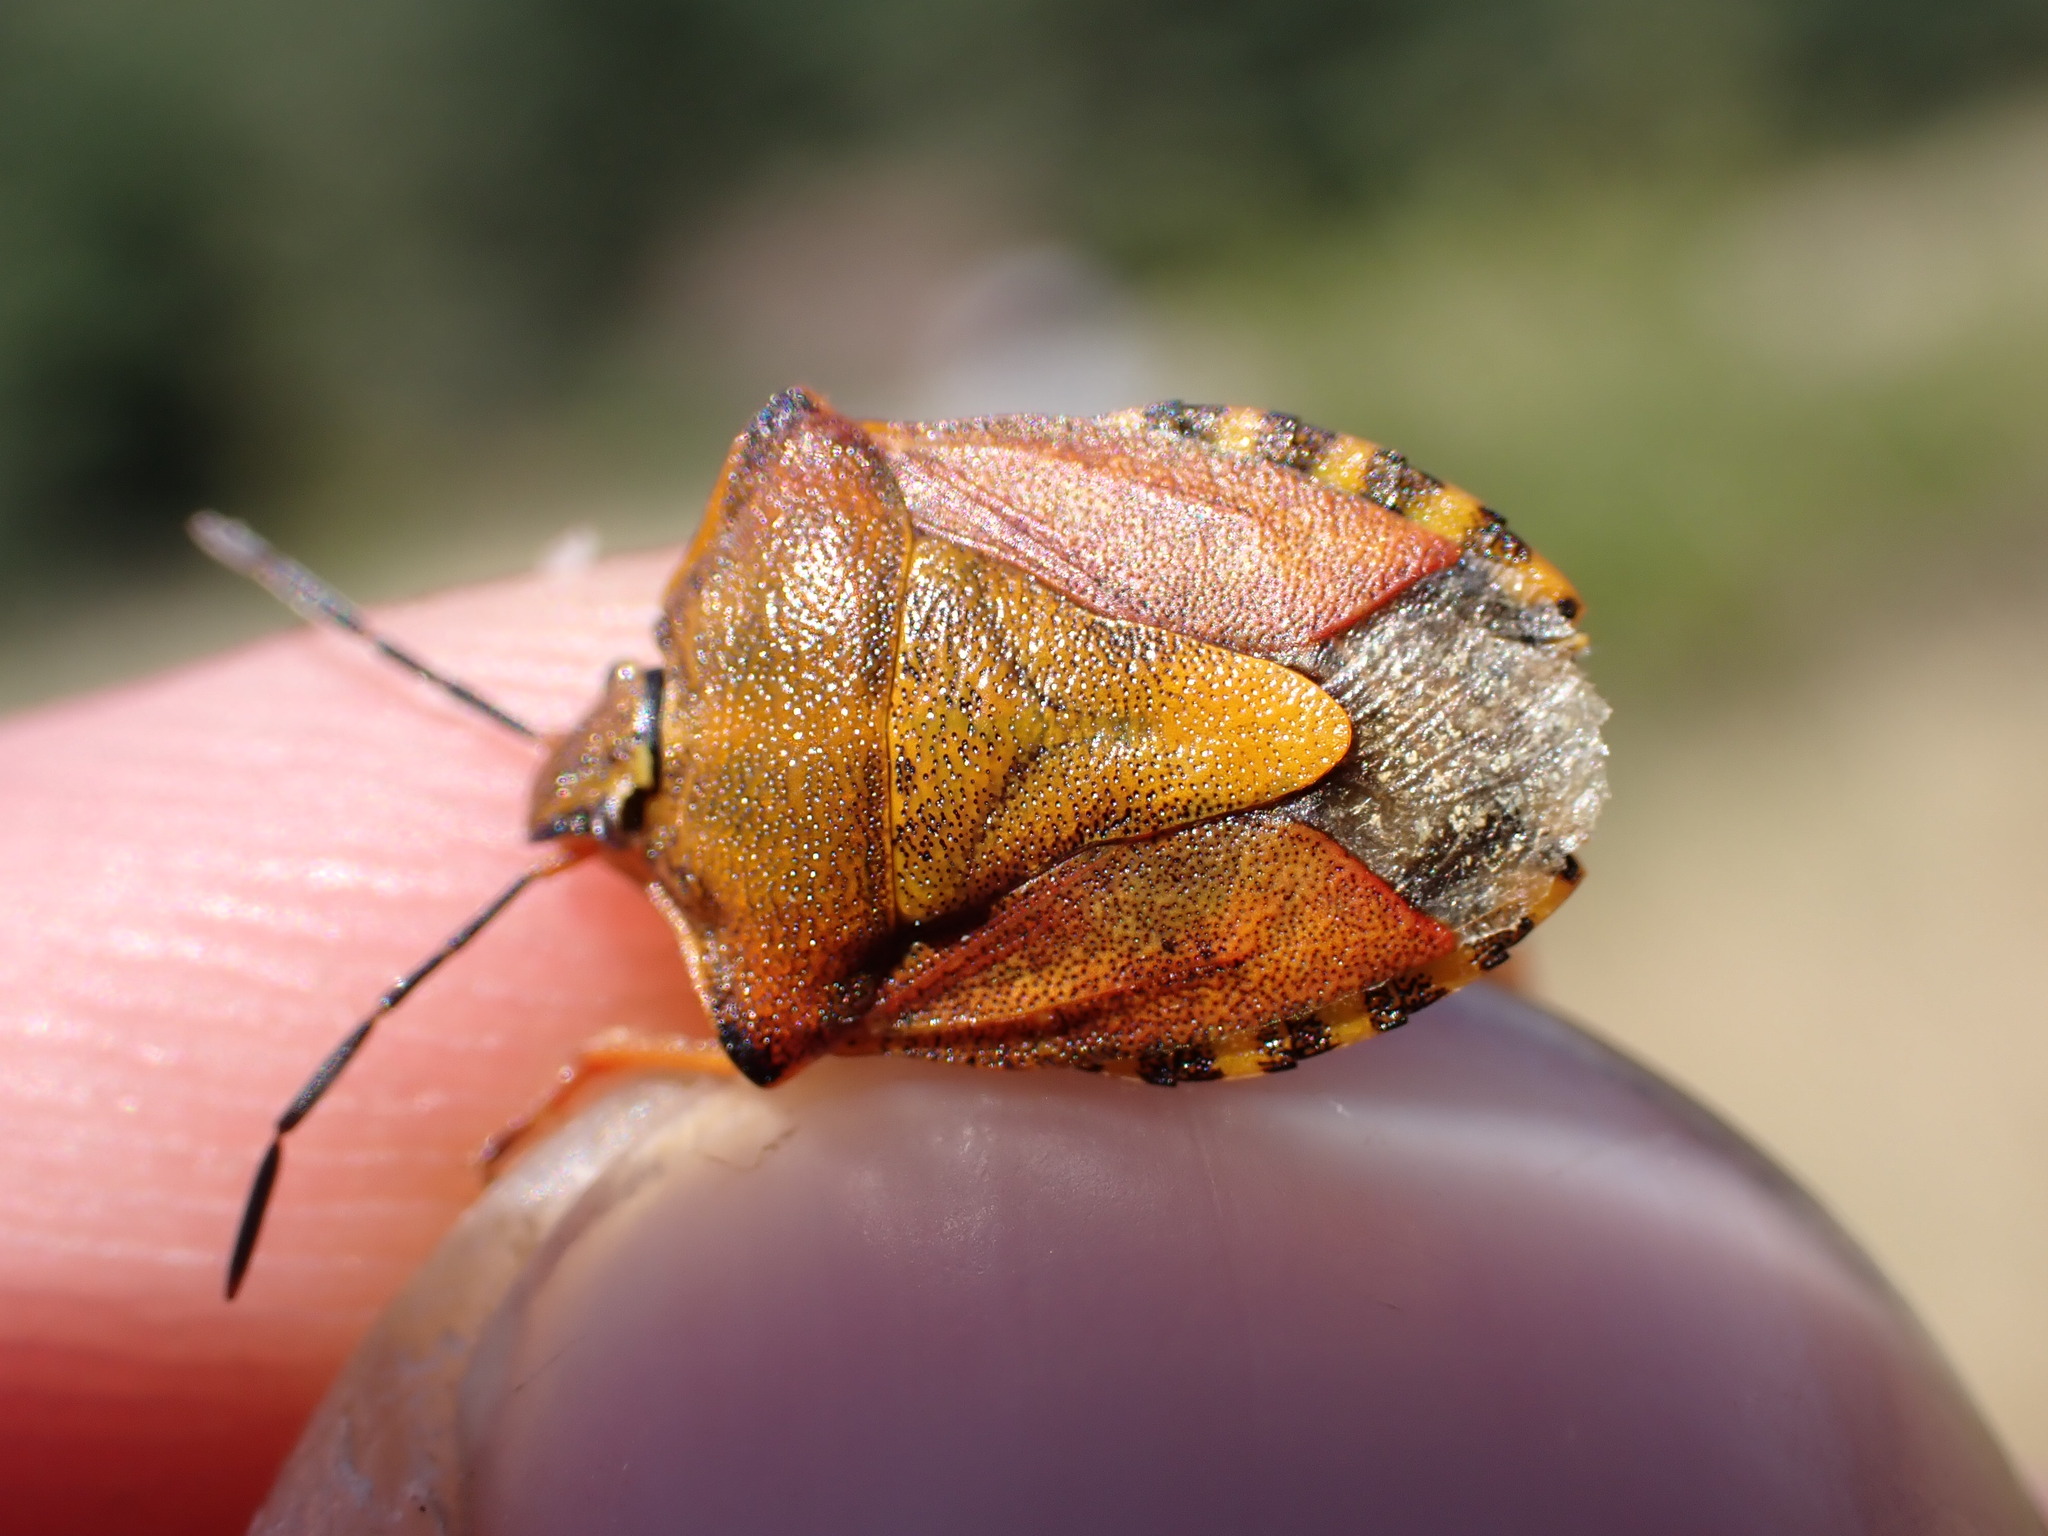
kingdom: Animalia
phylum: Arthropoda
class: Insecta
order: Hemiptera
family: Pentatomidae
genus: Carpocoris
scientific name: Carpocoris purpureipennis
